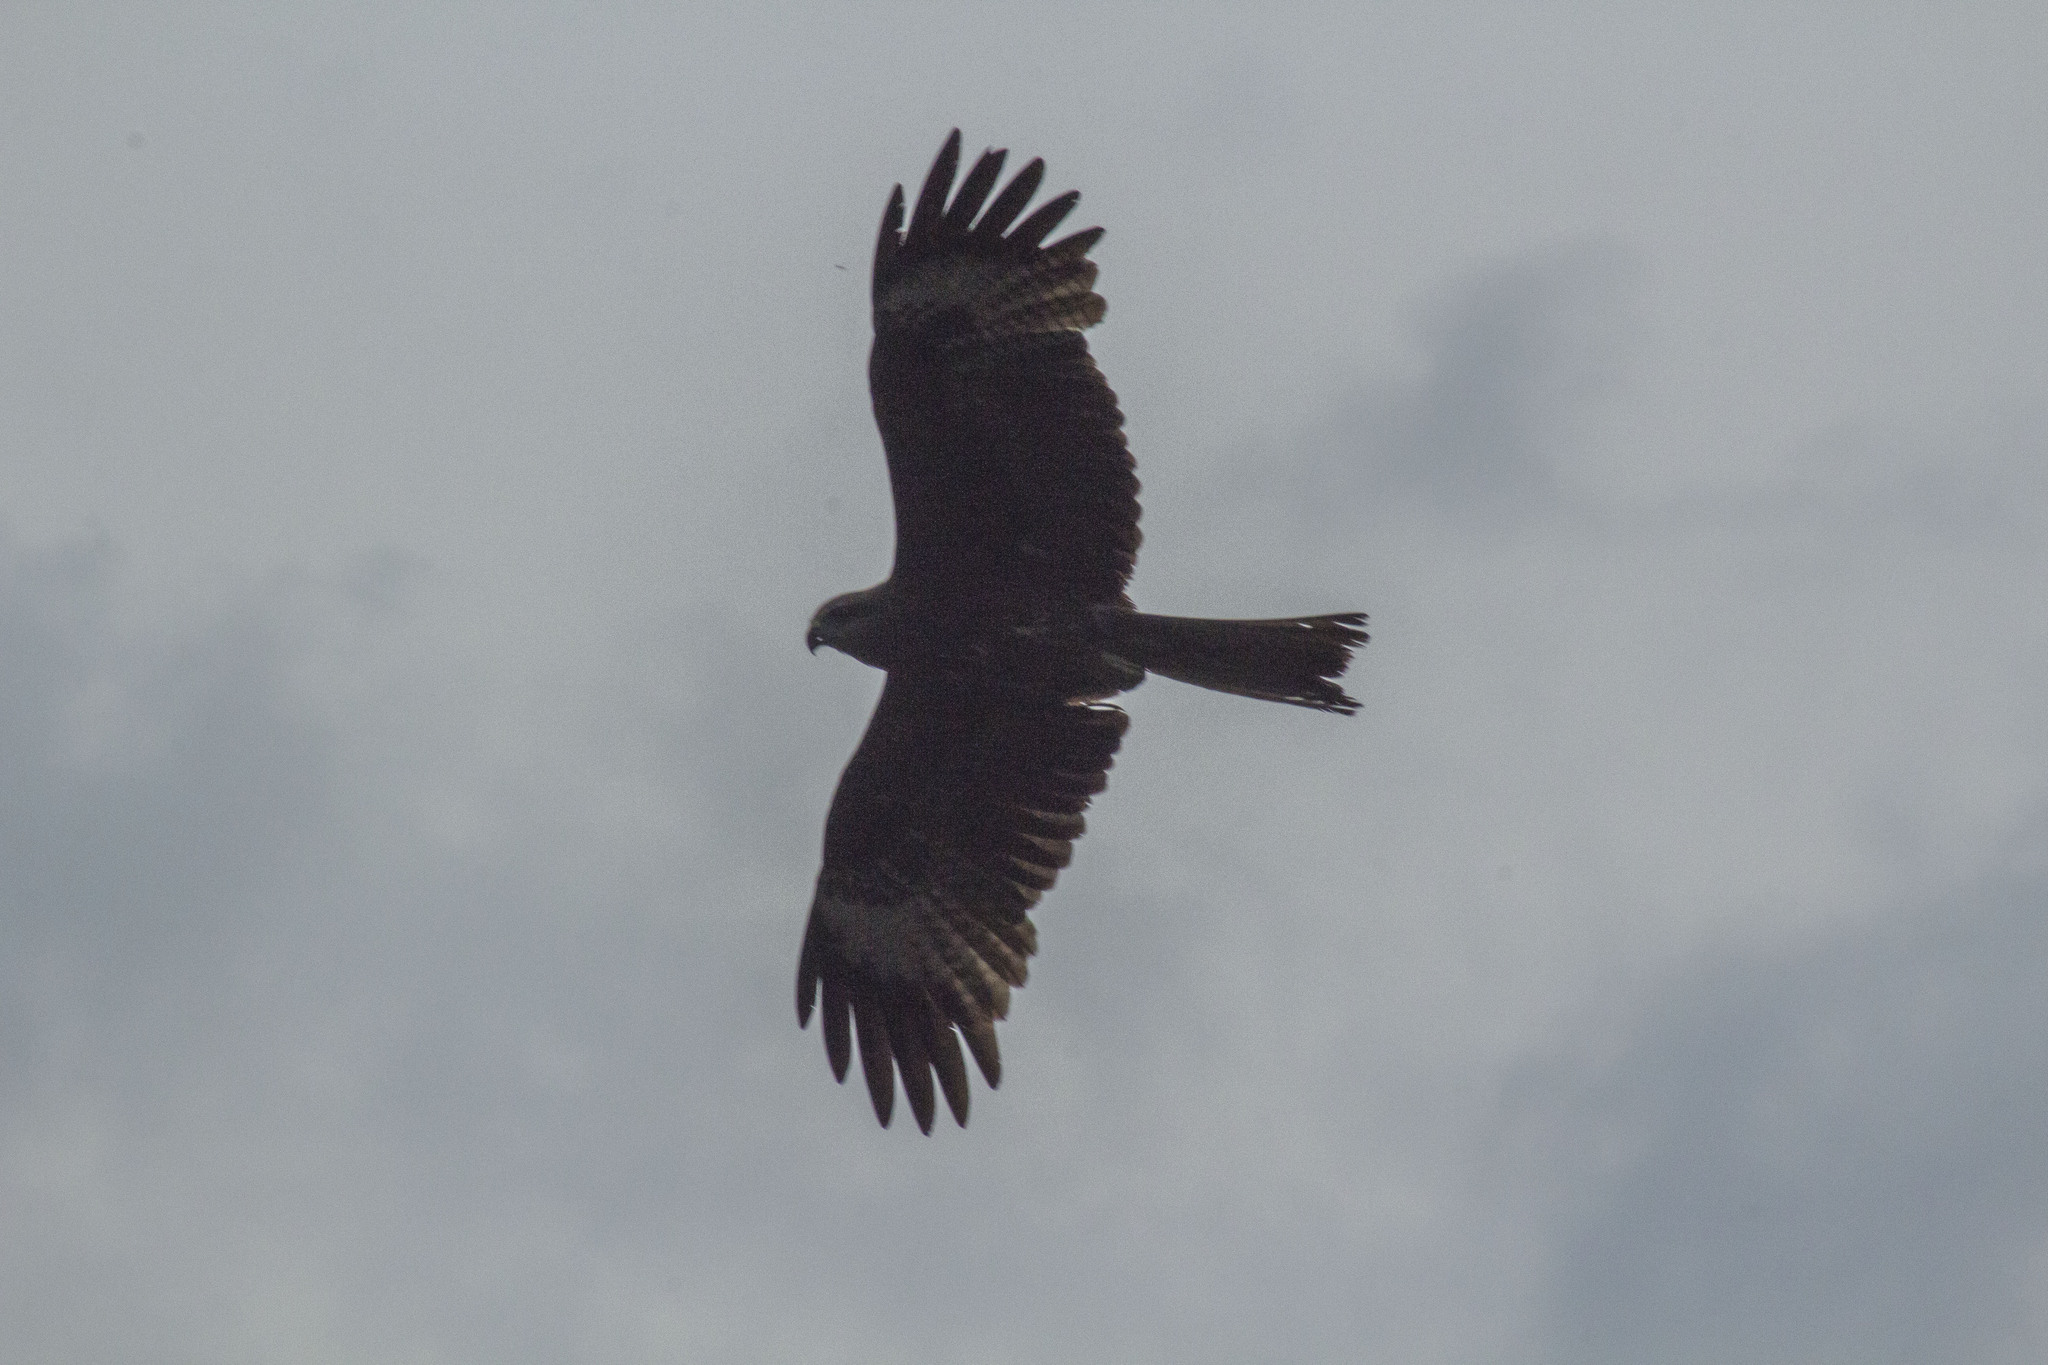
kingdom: Animalia
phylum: Chordata
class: Aves
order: Accipitriformes
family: Accipitridae
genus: Milvus
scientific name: Milvus migrans
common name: Black kite
